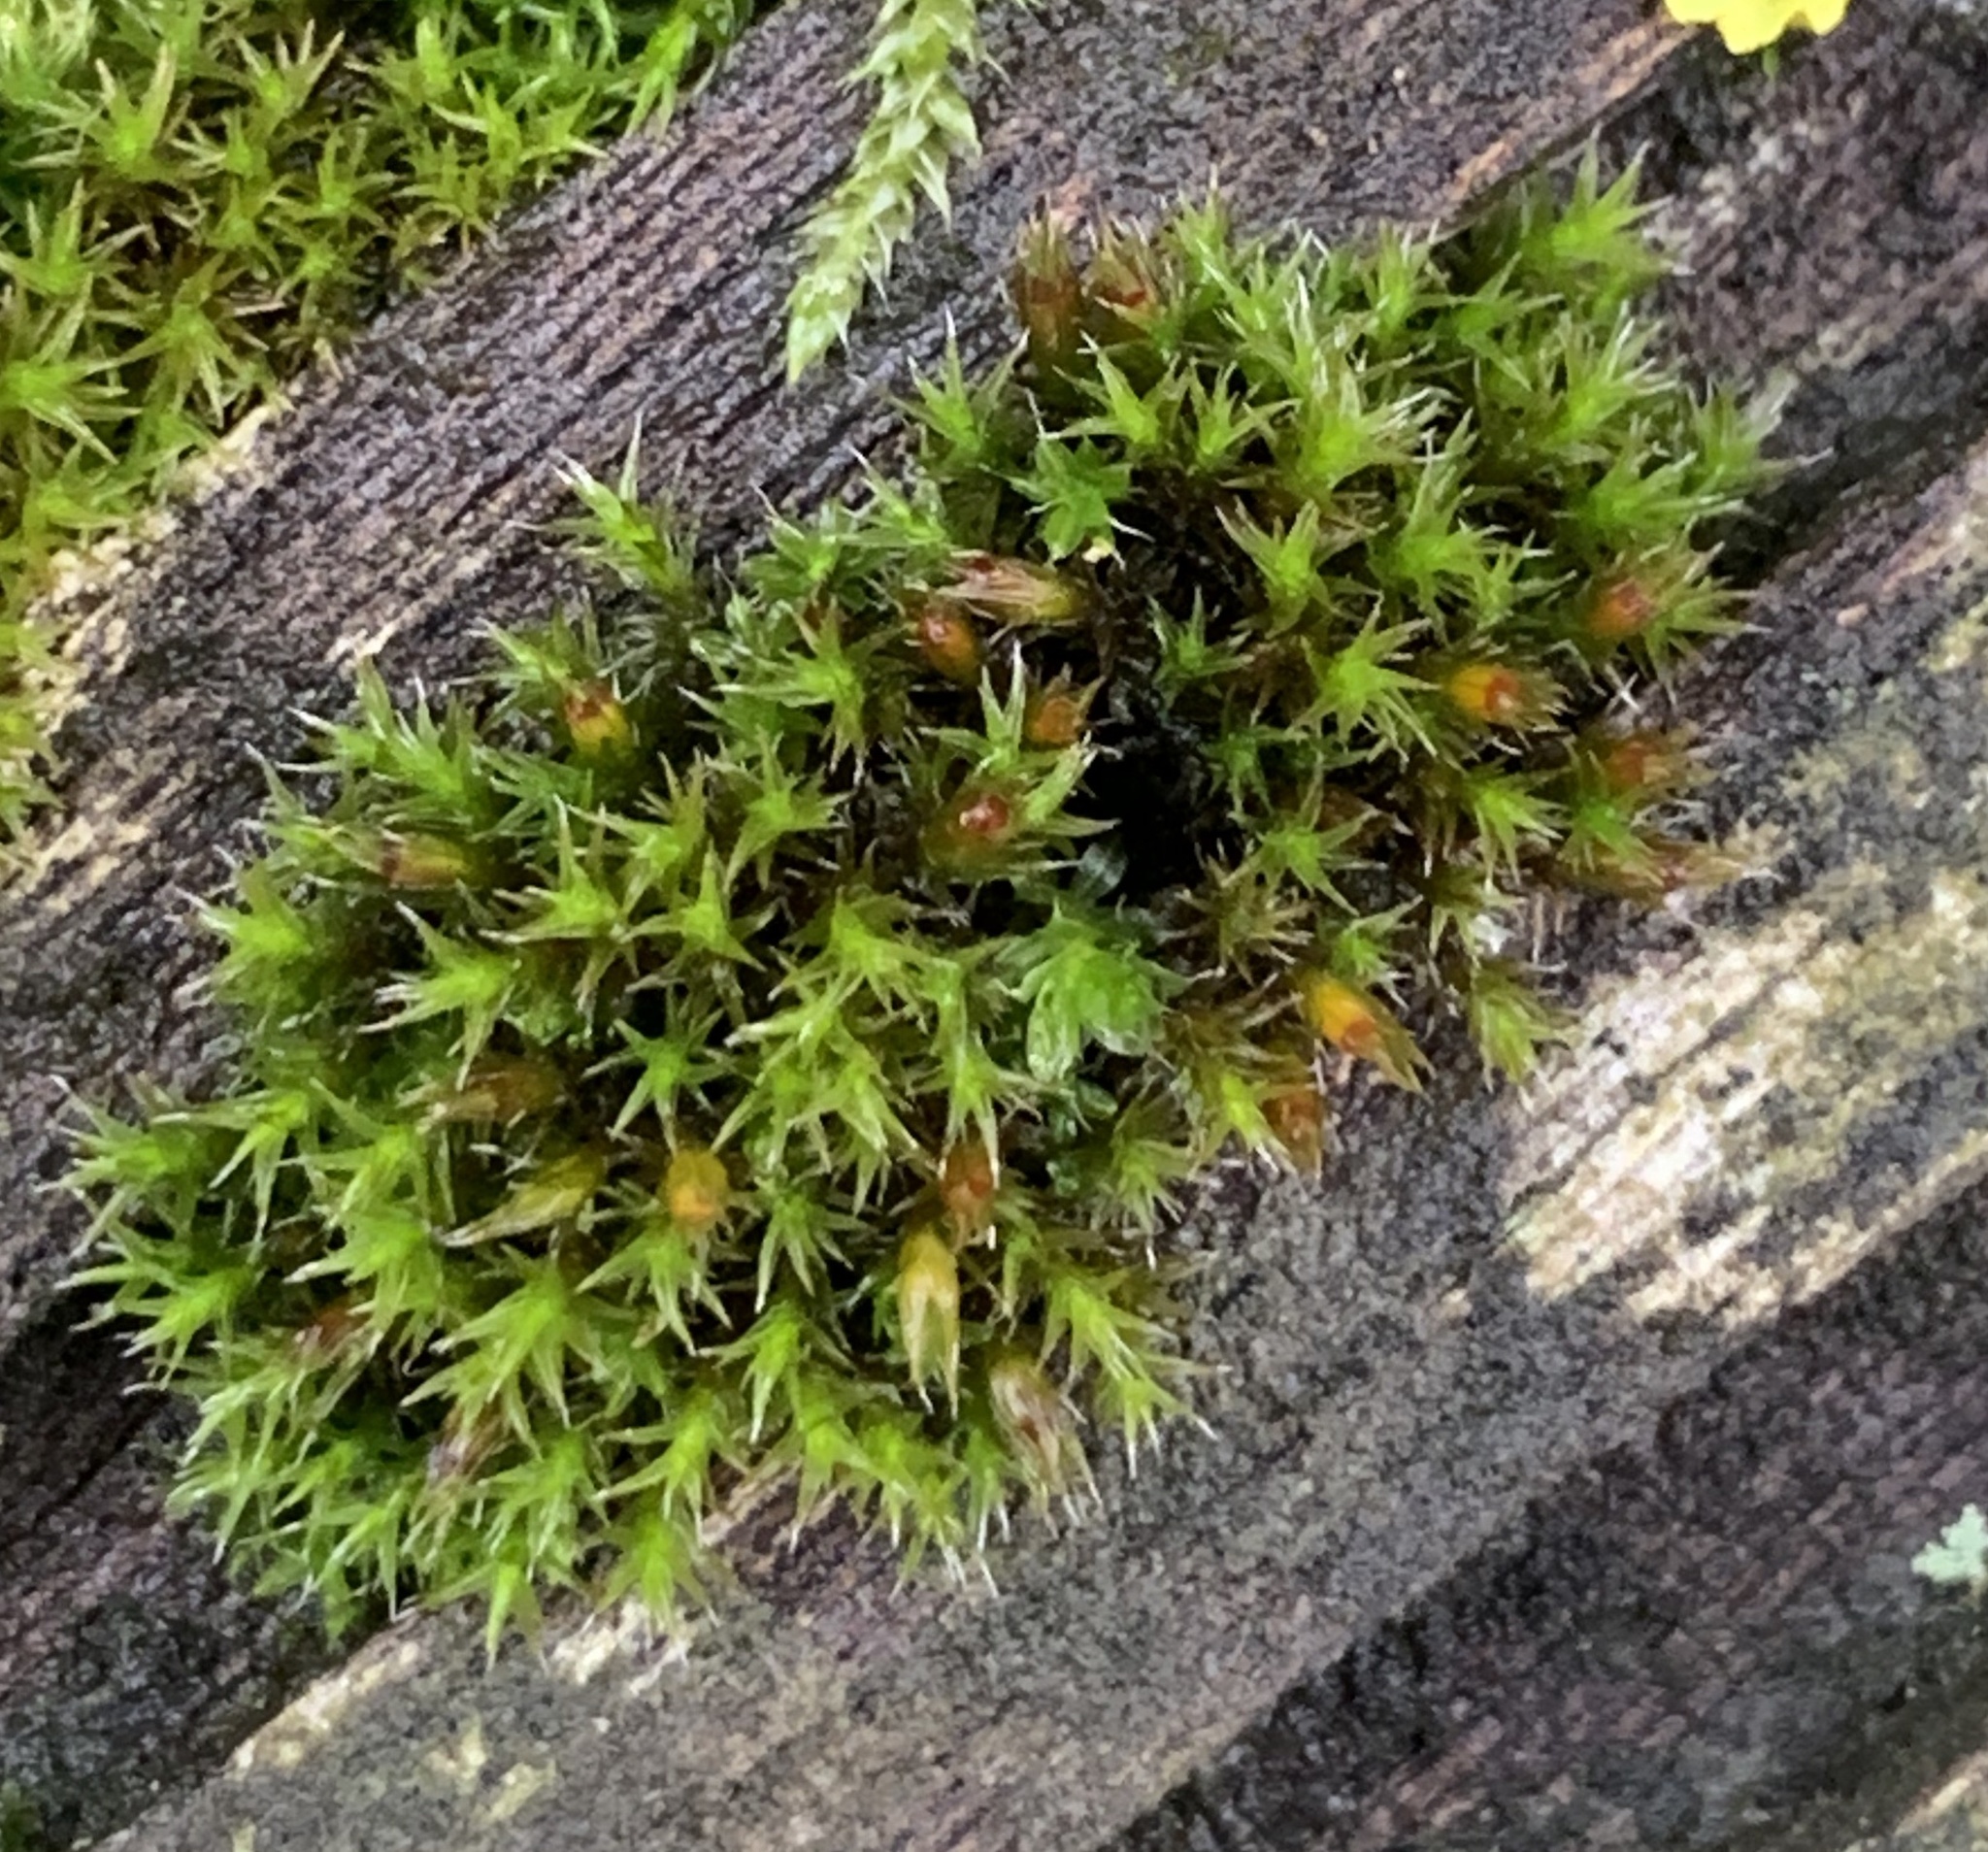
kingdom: Plantae
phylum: Bryophyta
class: Bryopsida
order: Grimmiales
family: Grimmiaceae
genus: Schistidium
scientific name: Schistidium crassipilum
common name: Thickpoint bloom moss
